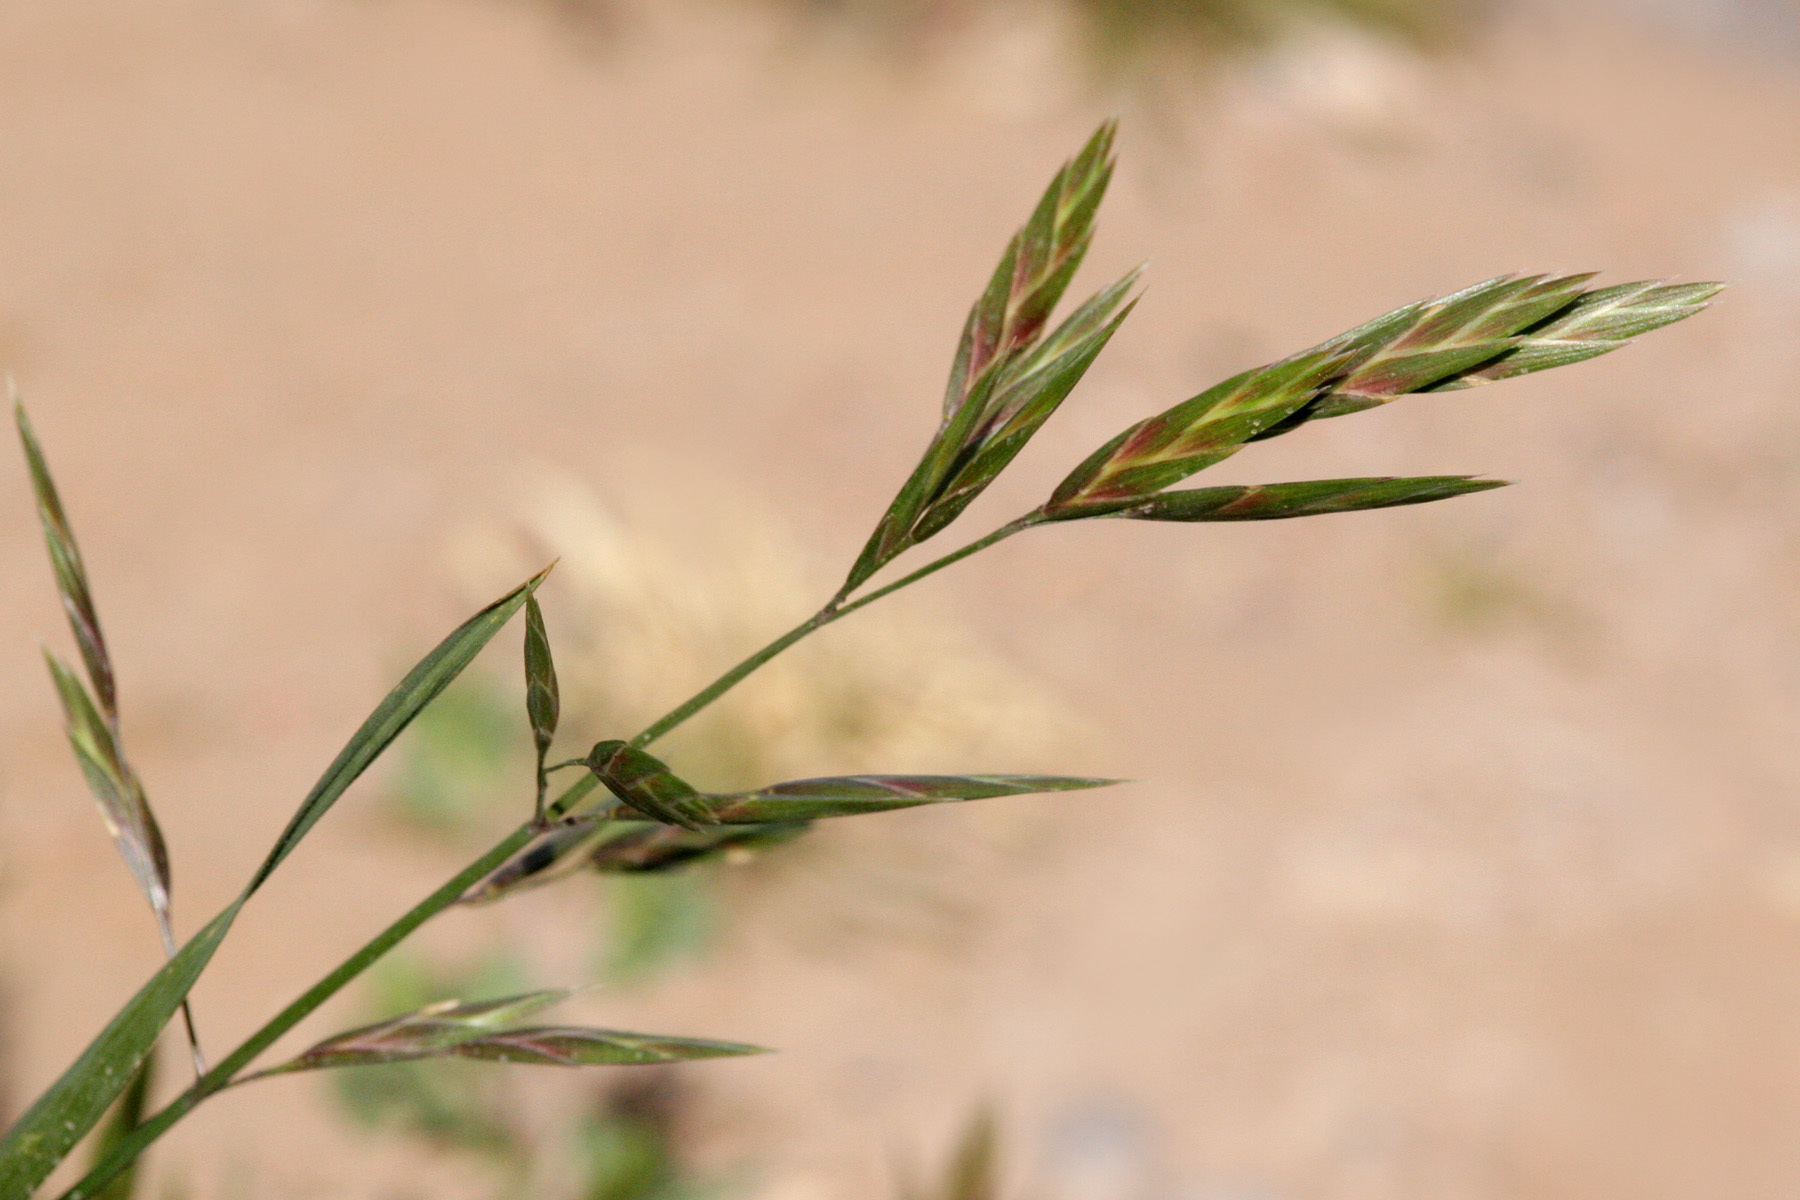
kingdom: Plantae
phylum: Tracheophyta
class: Liliopsida
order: Poales
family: Poaceae
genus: Bromus
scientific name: Bromus catharticus
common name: Rescuegrass
